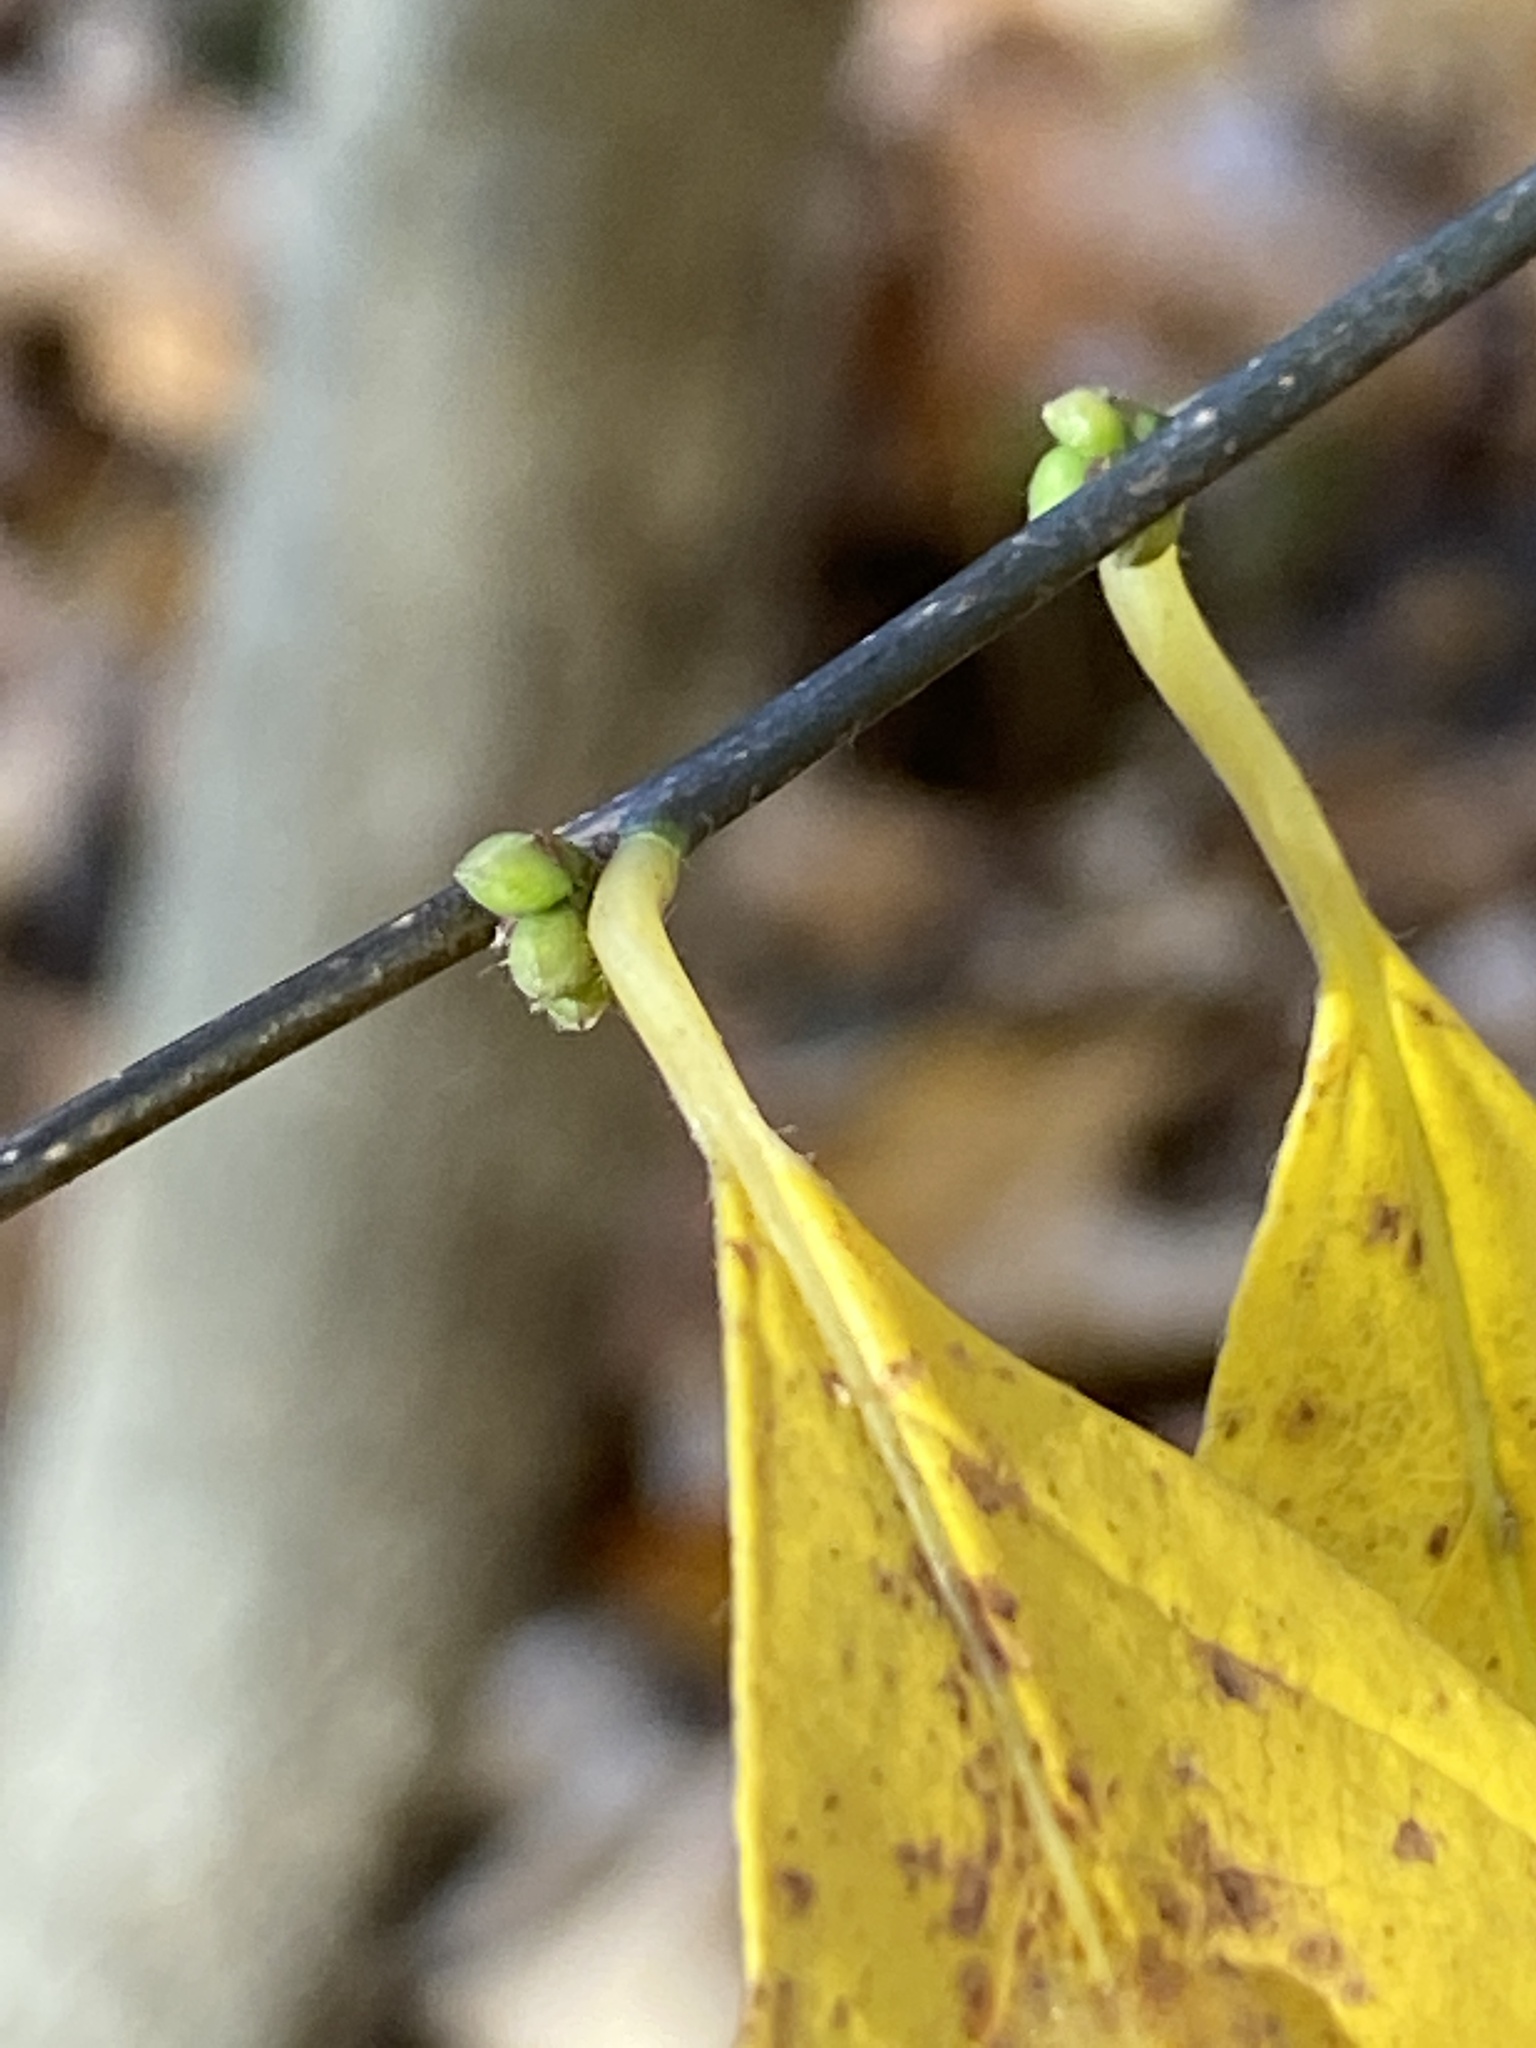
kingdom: Plantae
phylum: Tracheophyta
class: Magnoliopsida
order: Laurales
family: Lauraceae
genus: Lindera
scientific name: Lindera benzoin
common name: Spicebush
